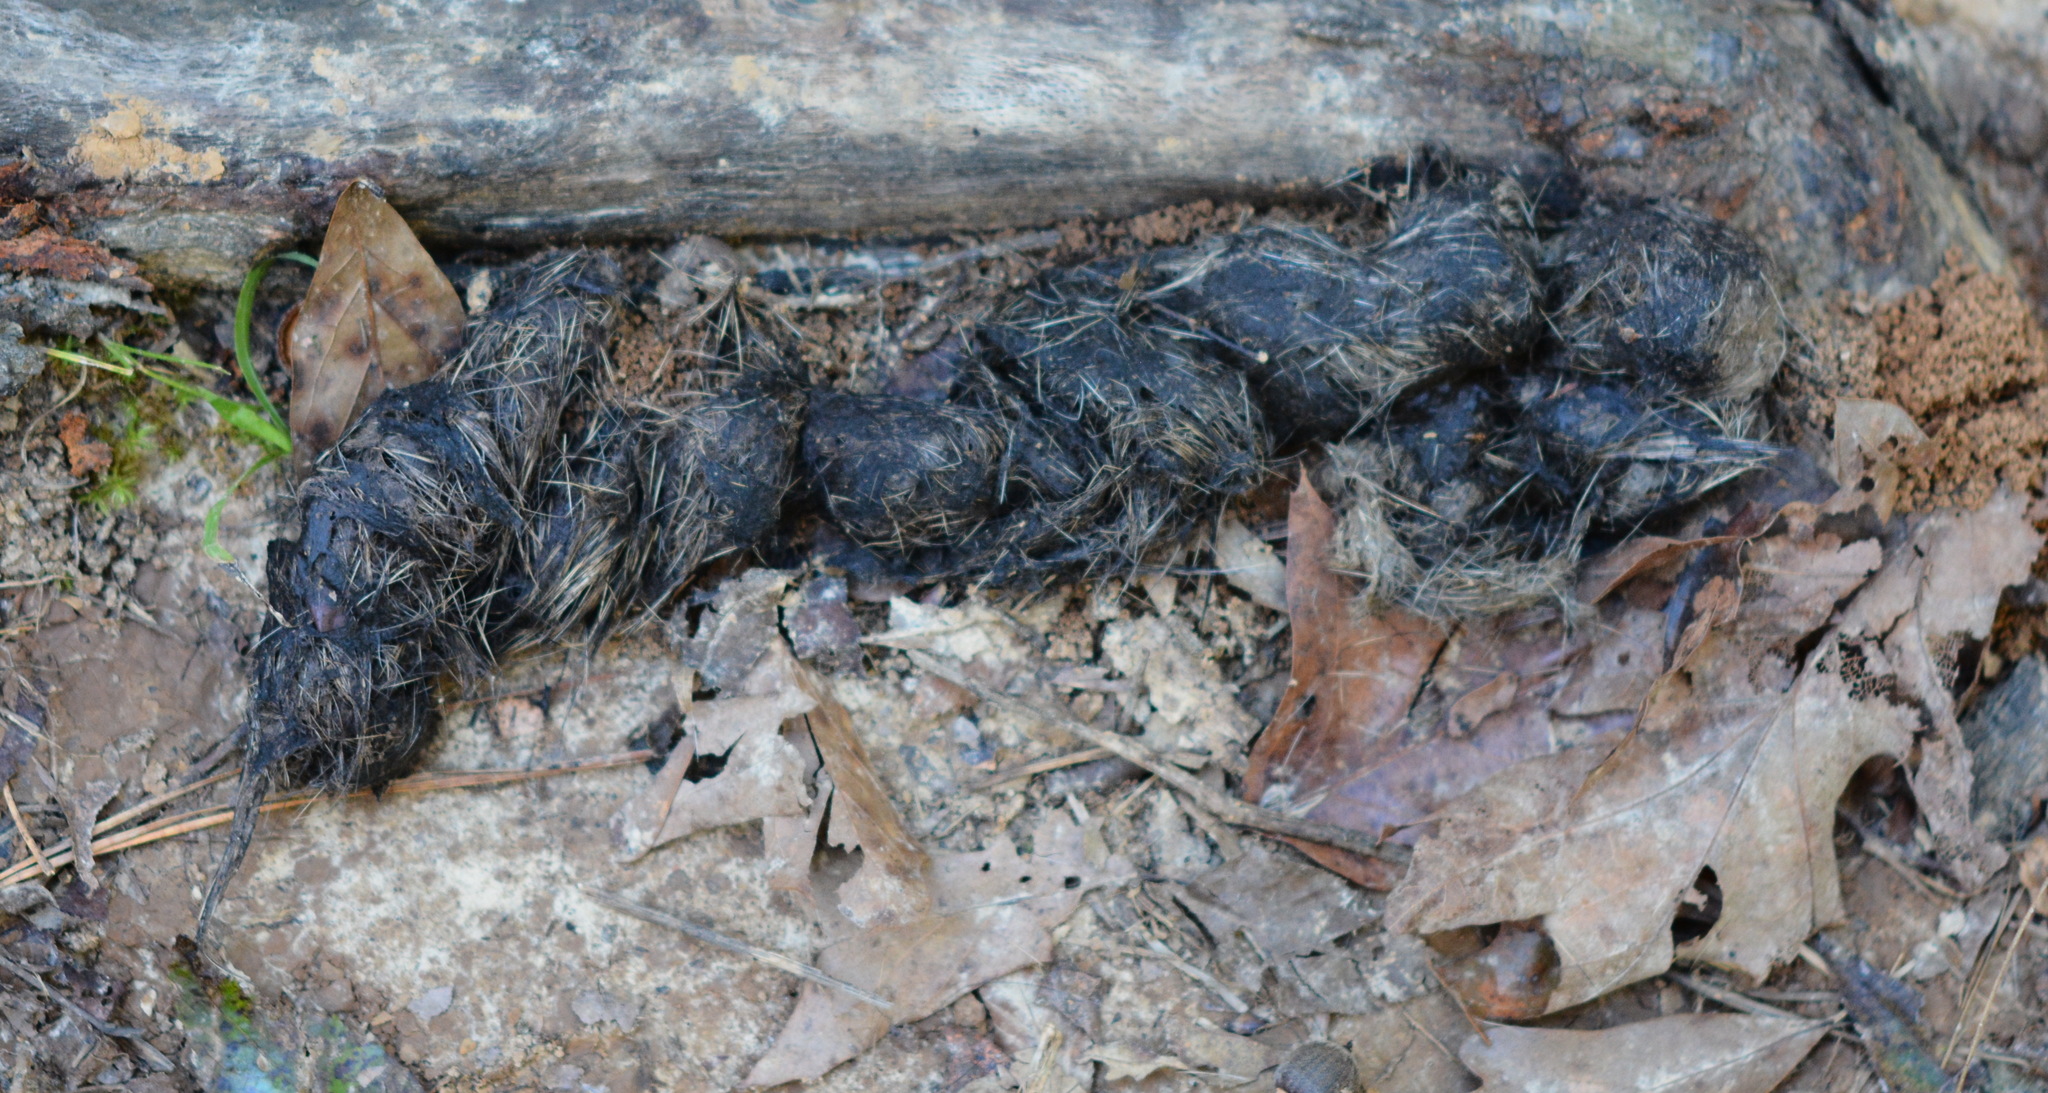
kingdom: Animalia
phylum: Chordata
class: Mammalia
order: Carnivora
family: Canidae
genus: Canis
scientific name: Canis latrans
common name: Coyote
